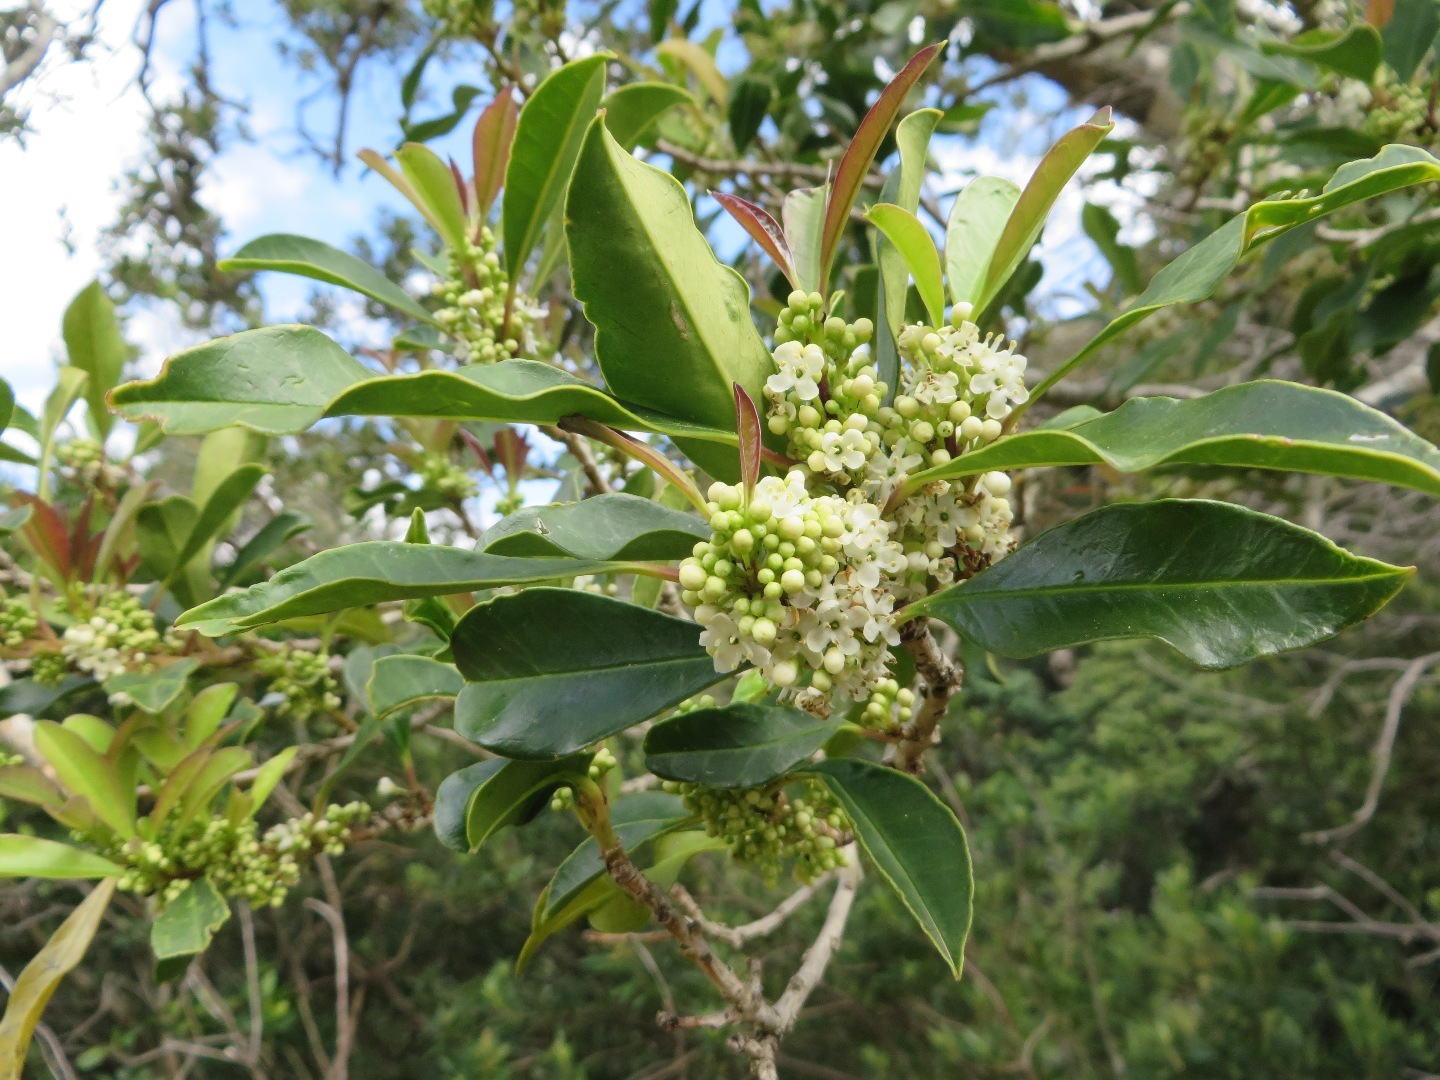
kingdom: Plantae
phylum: Tracheophyta
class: Magnoliopsida
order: Aquifoliales
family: Aquifoliaceae
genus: Ilex
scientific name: Ilex mitis
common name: African holly
